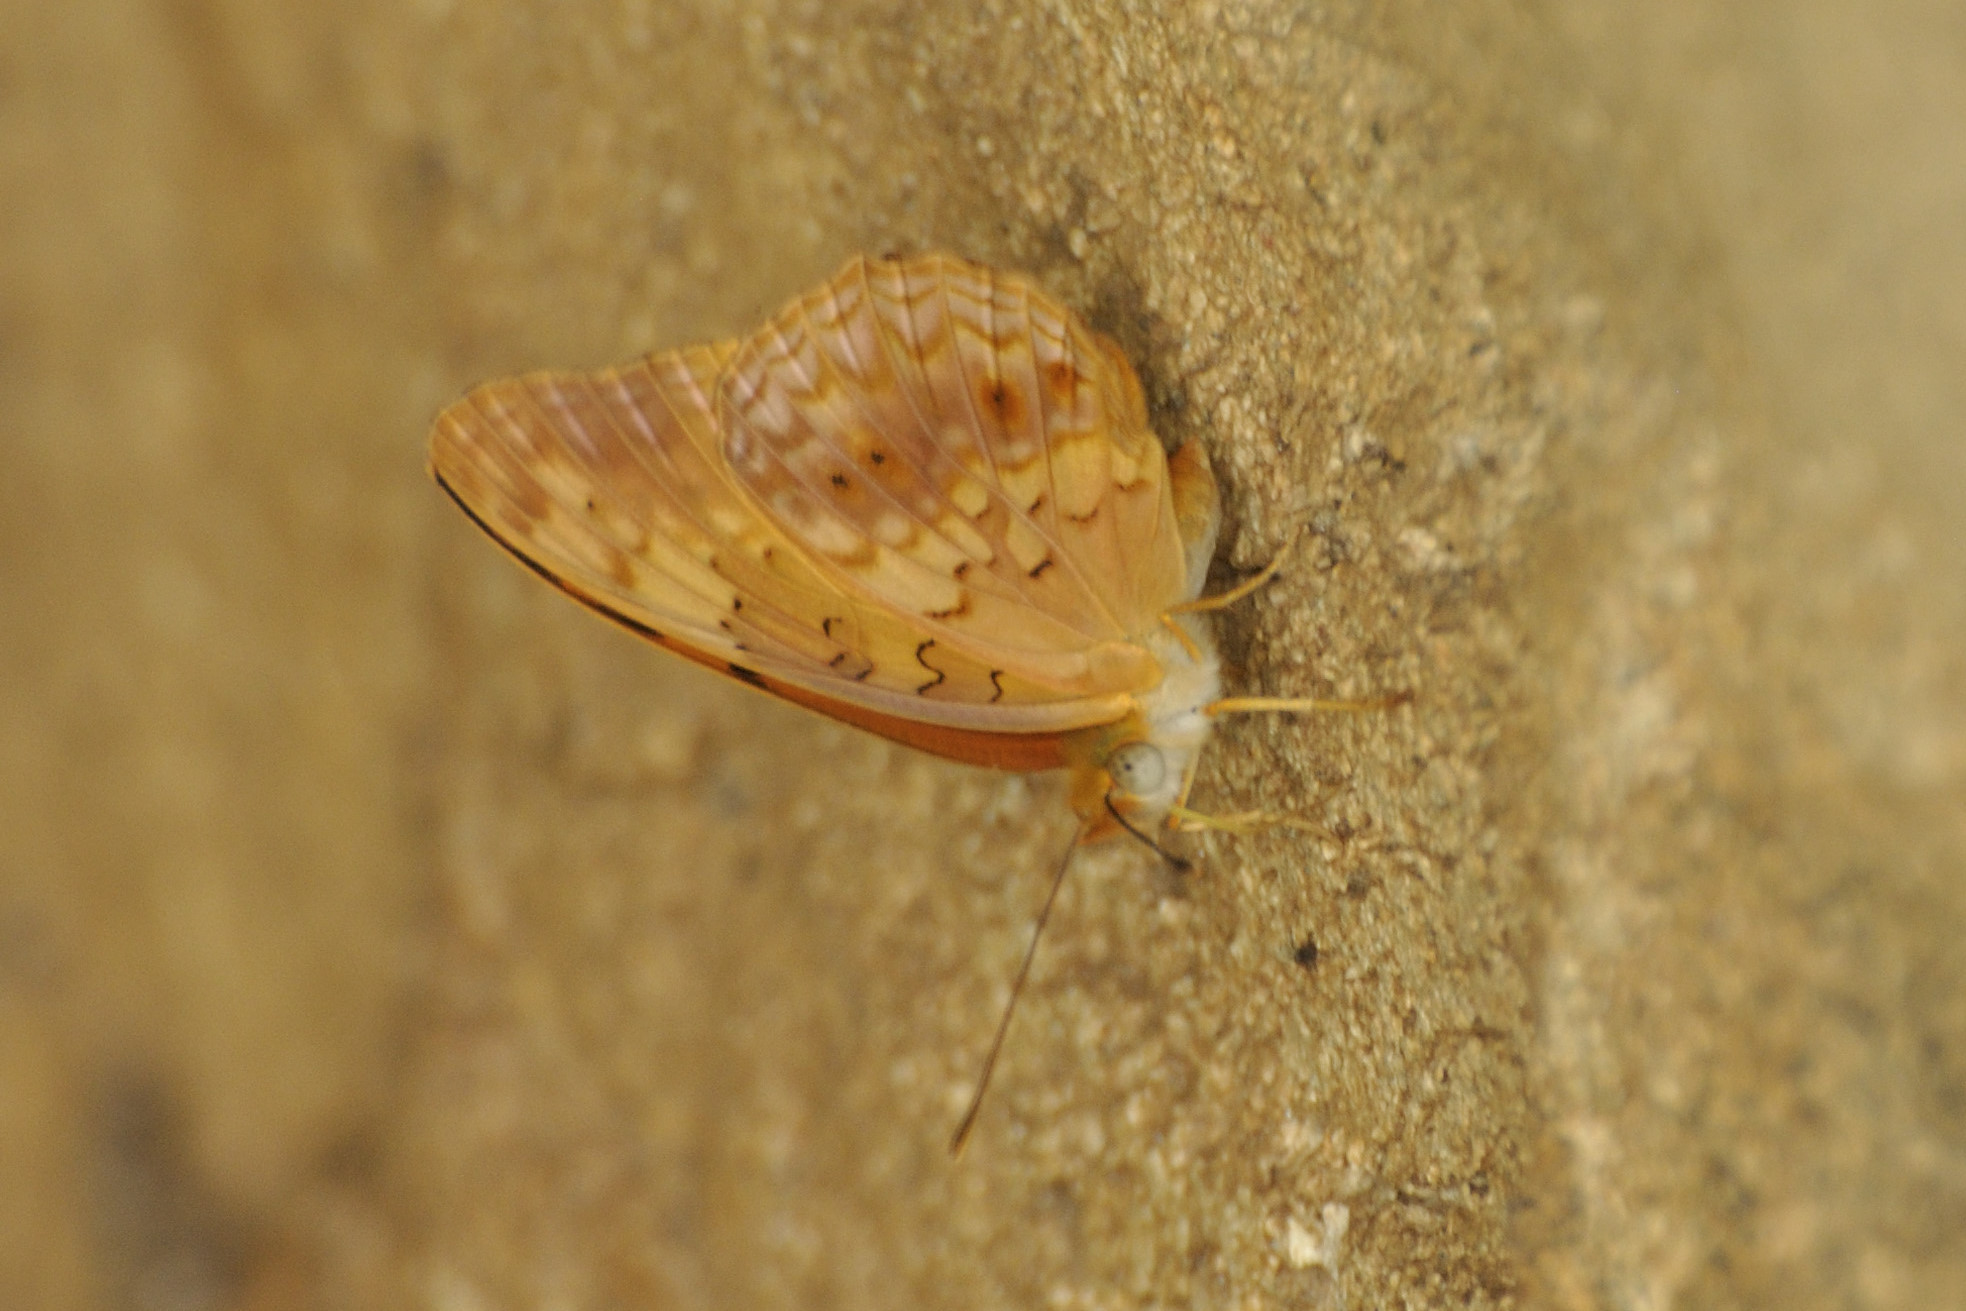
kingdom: Animalia
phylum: Arthropoda
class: Insecta
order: Lepidoptera
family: Nymphalidae
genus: Phalanta
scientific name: Phalanta phalantha
